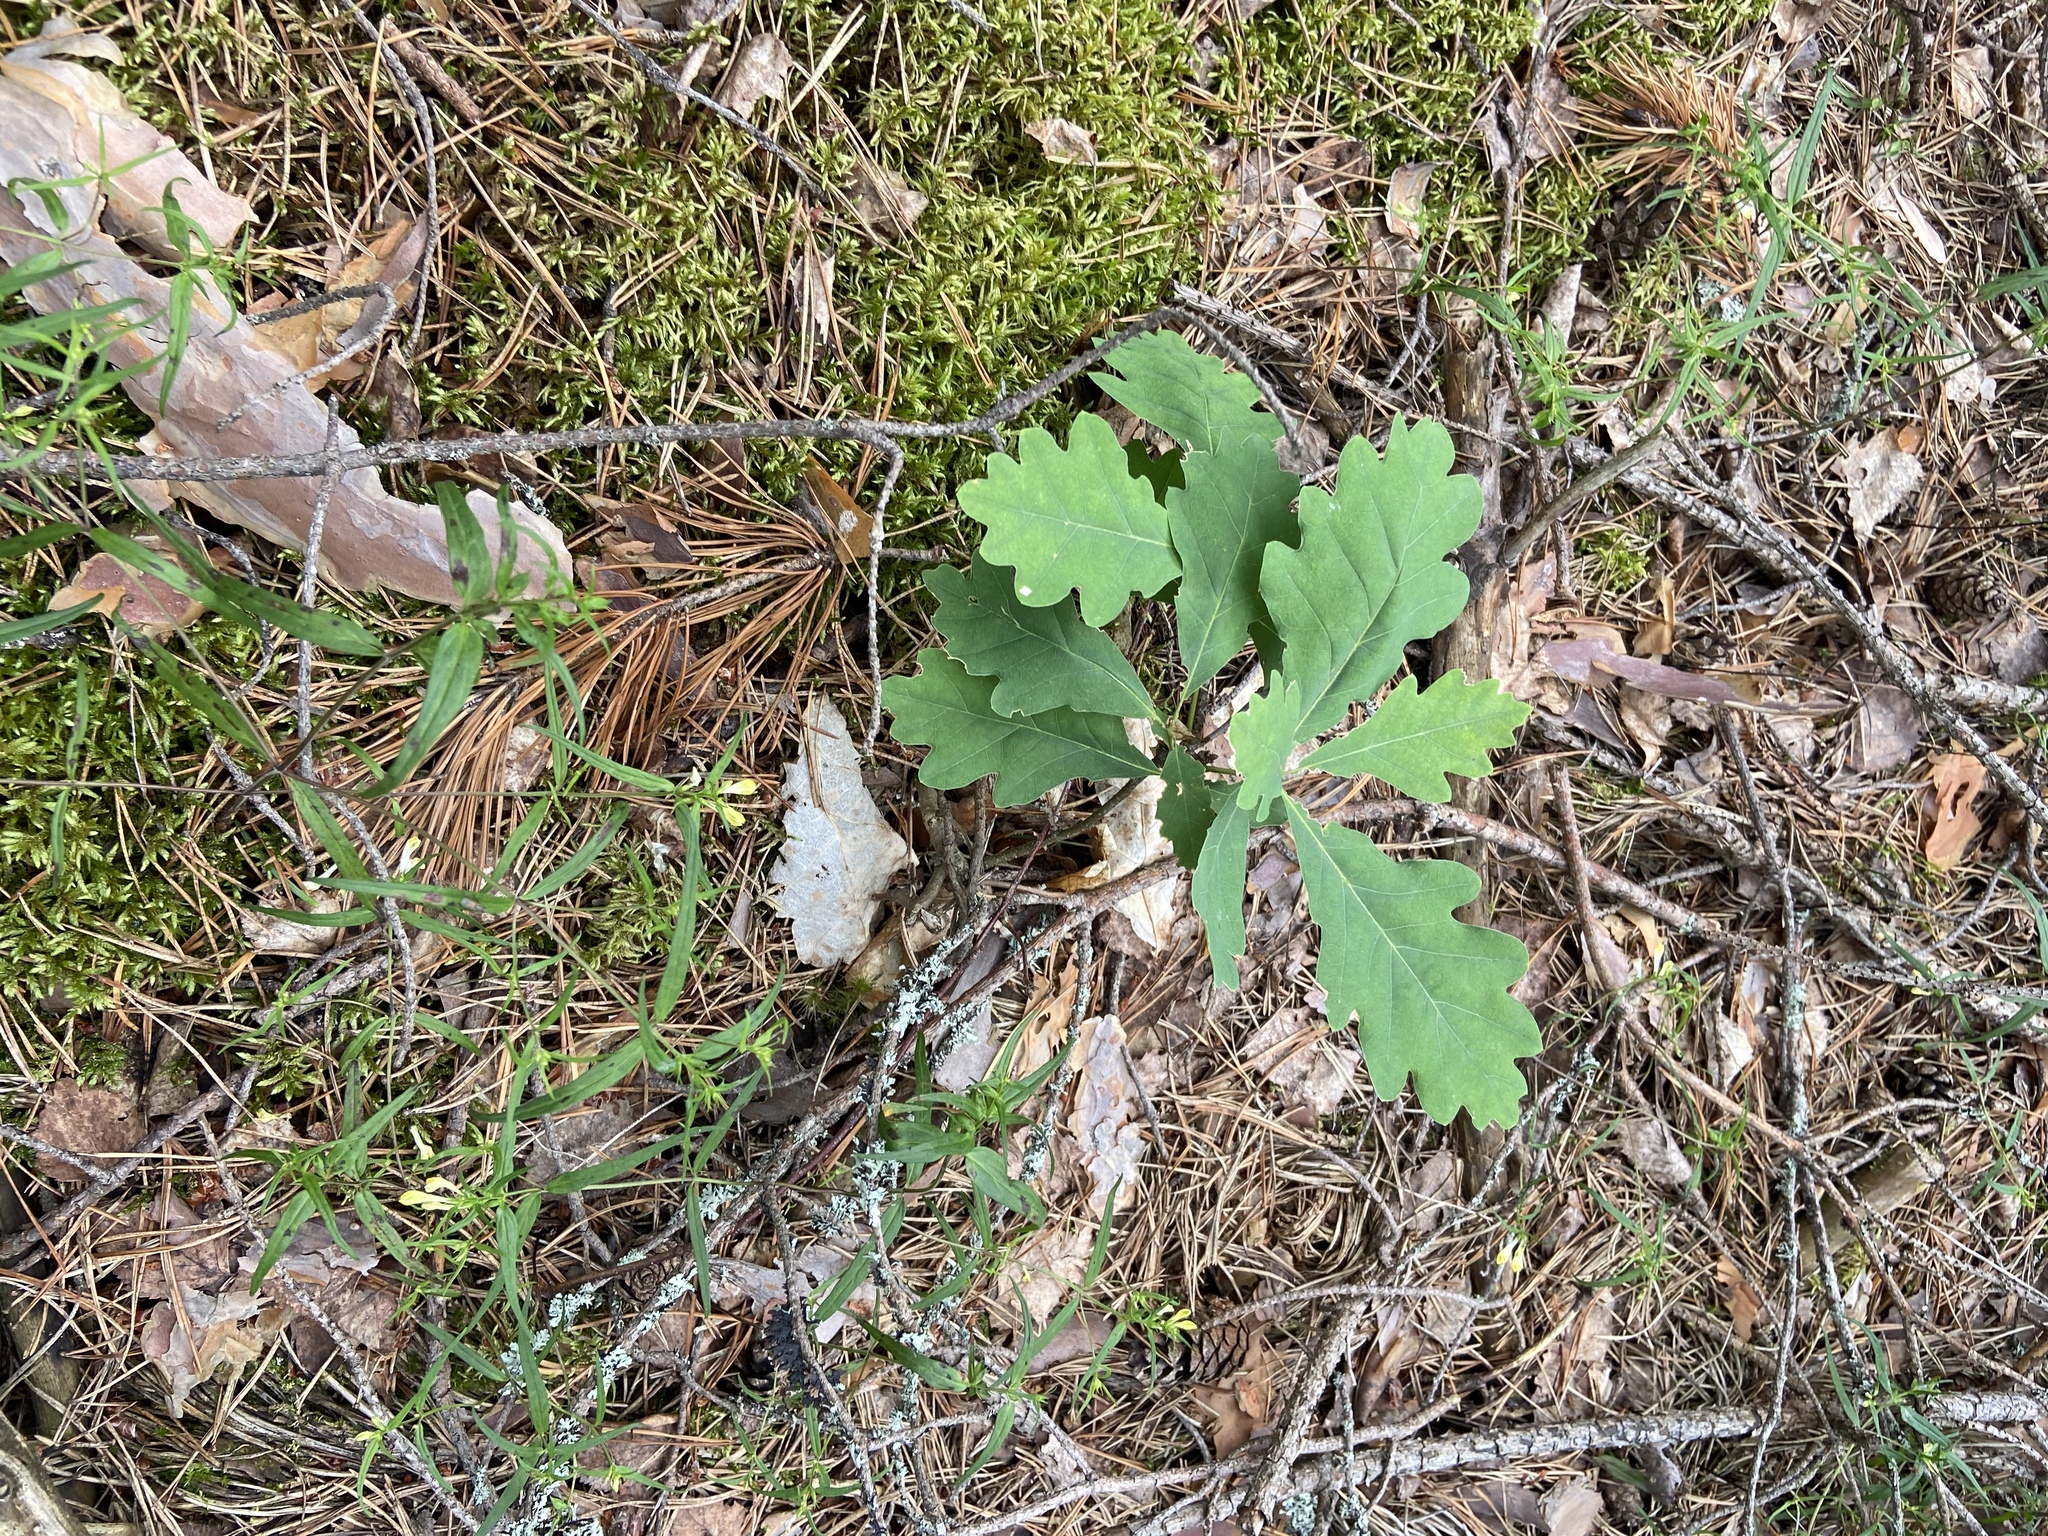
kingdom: Plantae
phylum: Tracheophyta
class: Magnoliopsida
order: Fagales
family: Fagaceae
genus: Quercus
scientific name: Quercus robur
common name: Pedunculate oak
